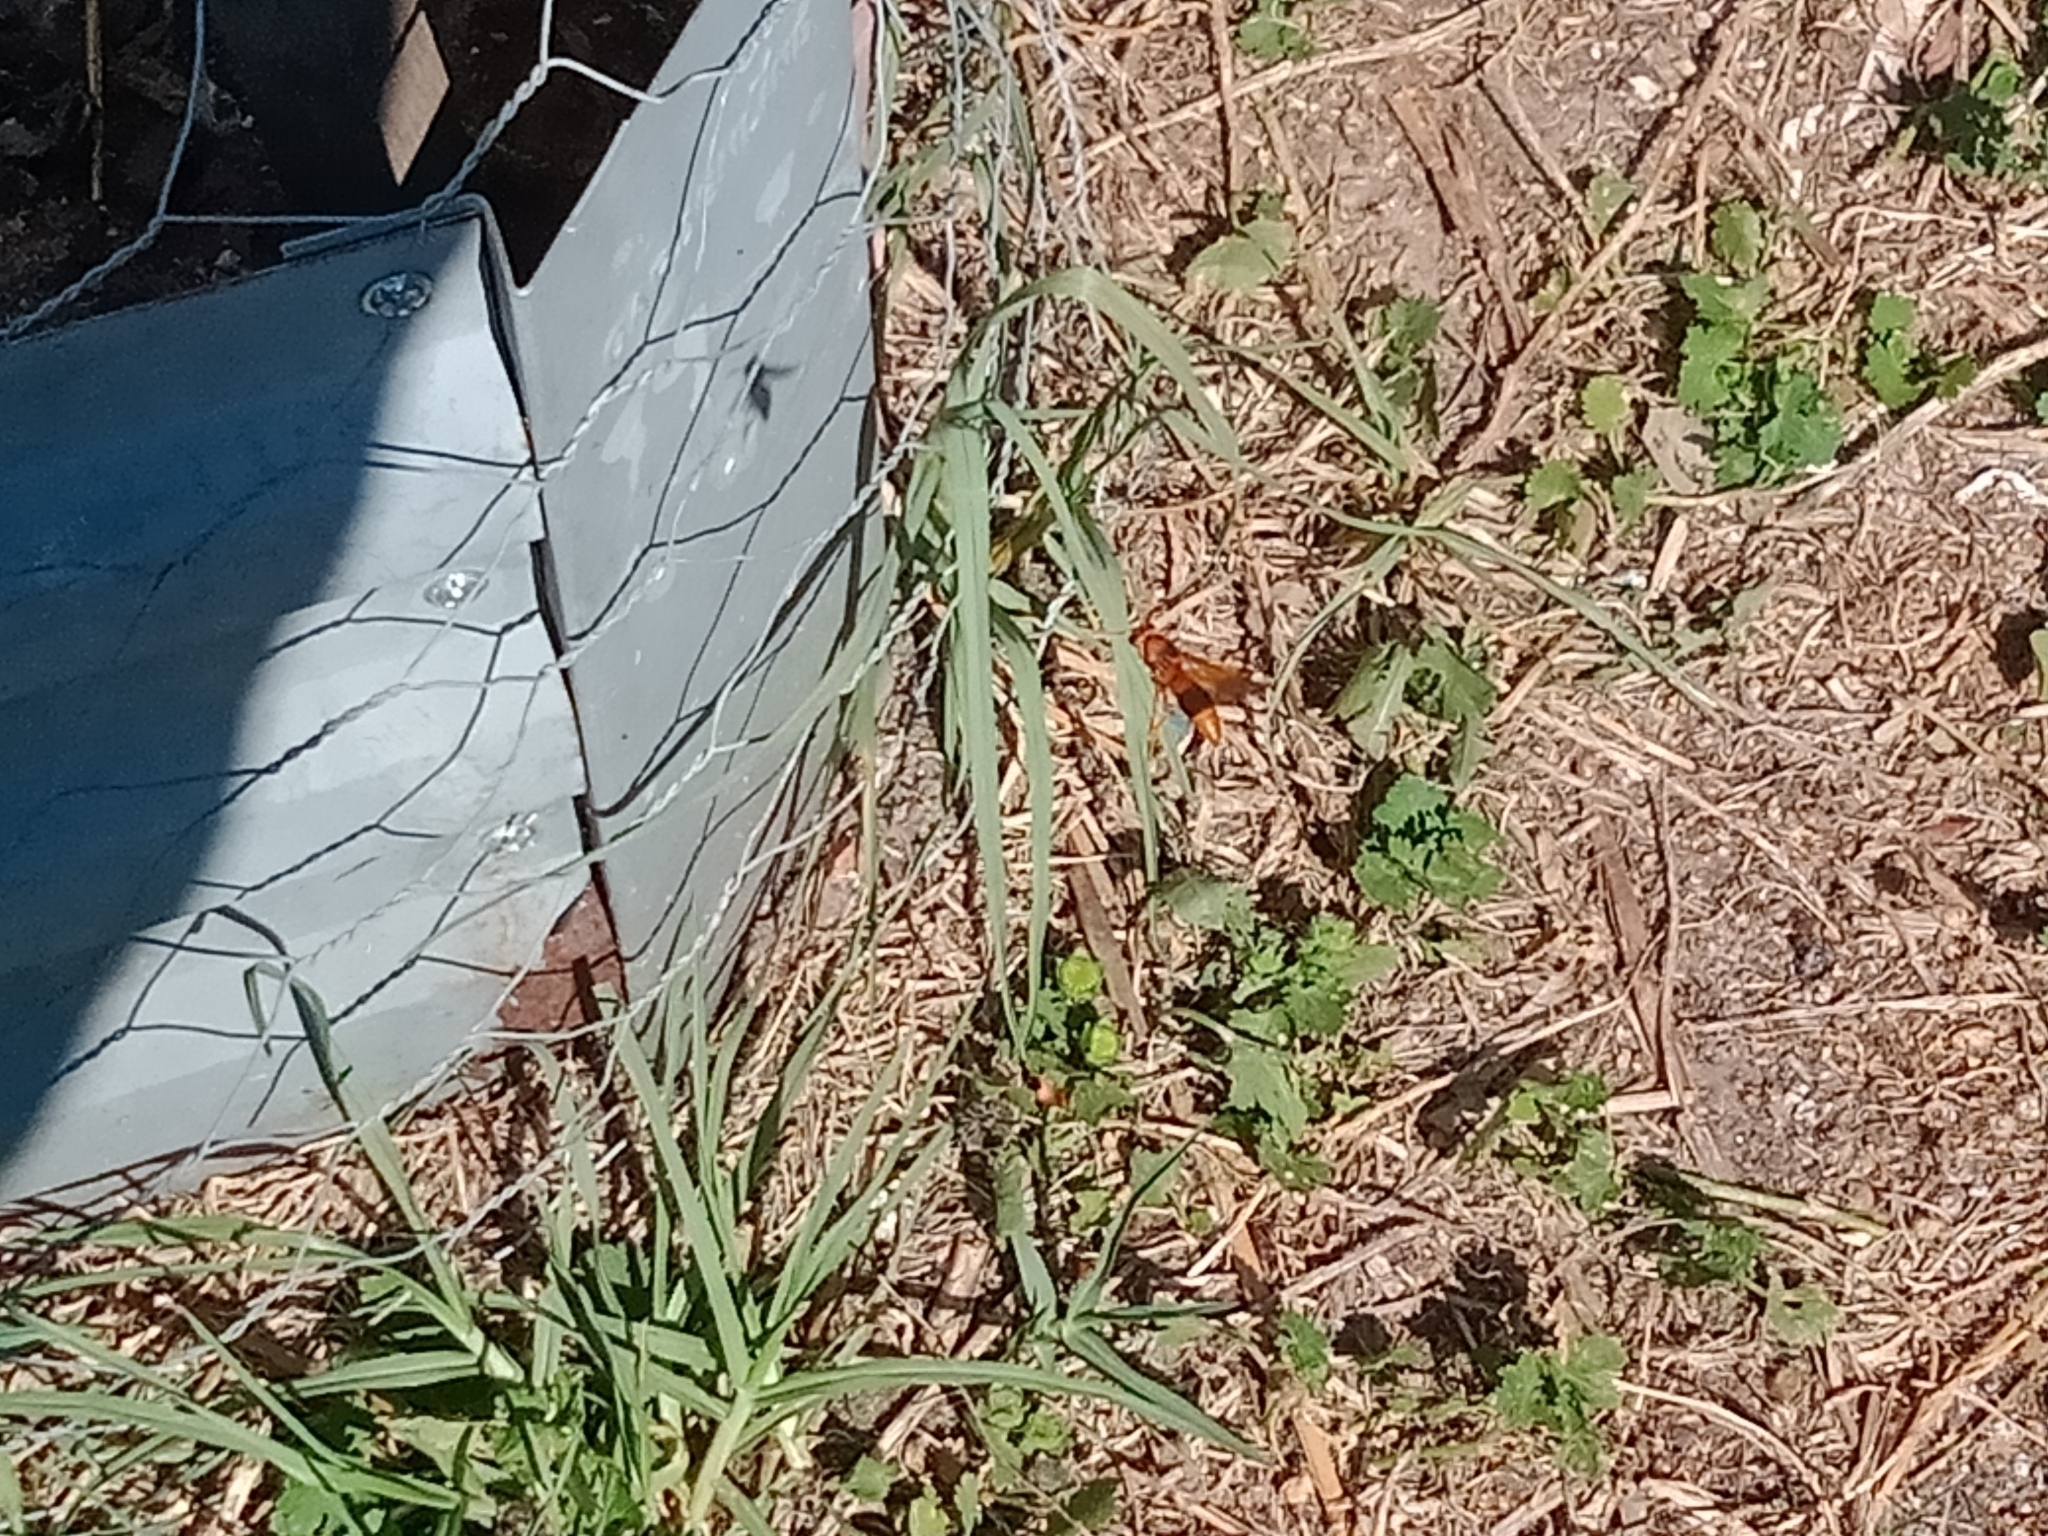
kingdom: Animalia
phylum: Arthropoda
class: Insecta
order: Hymenoptera
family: Eumenidae
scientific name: Eumenidae
